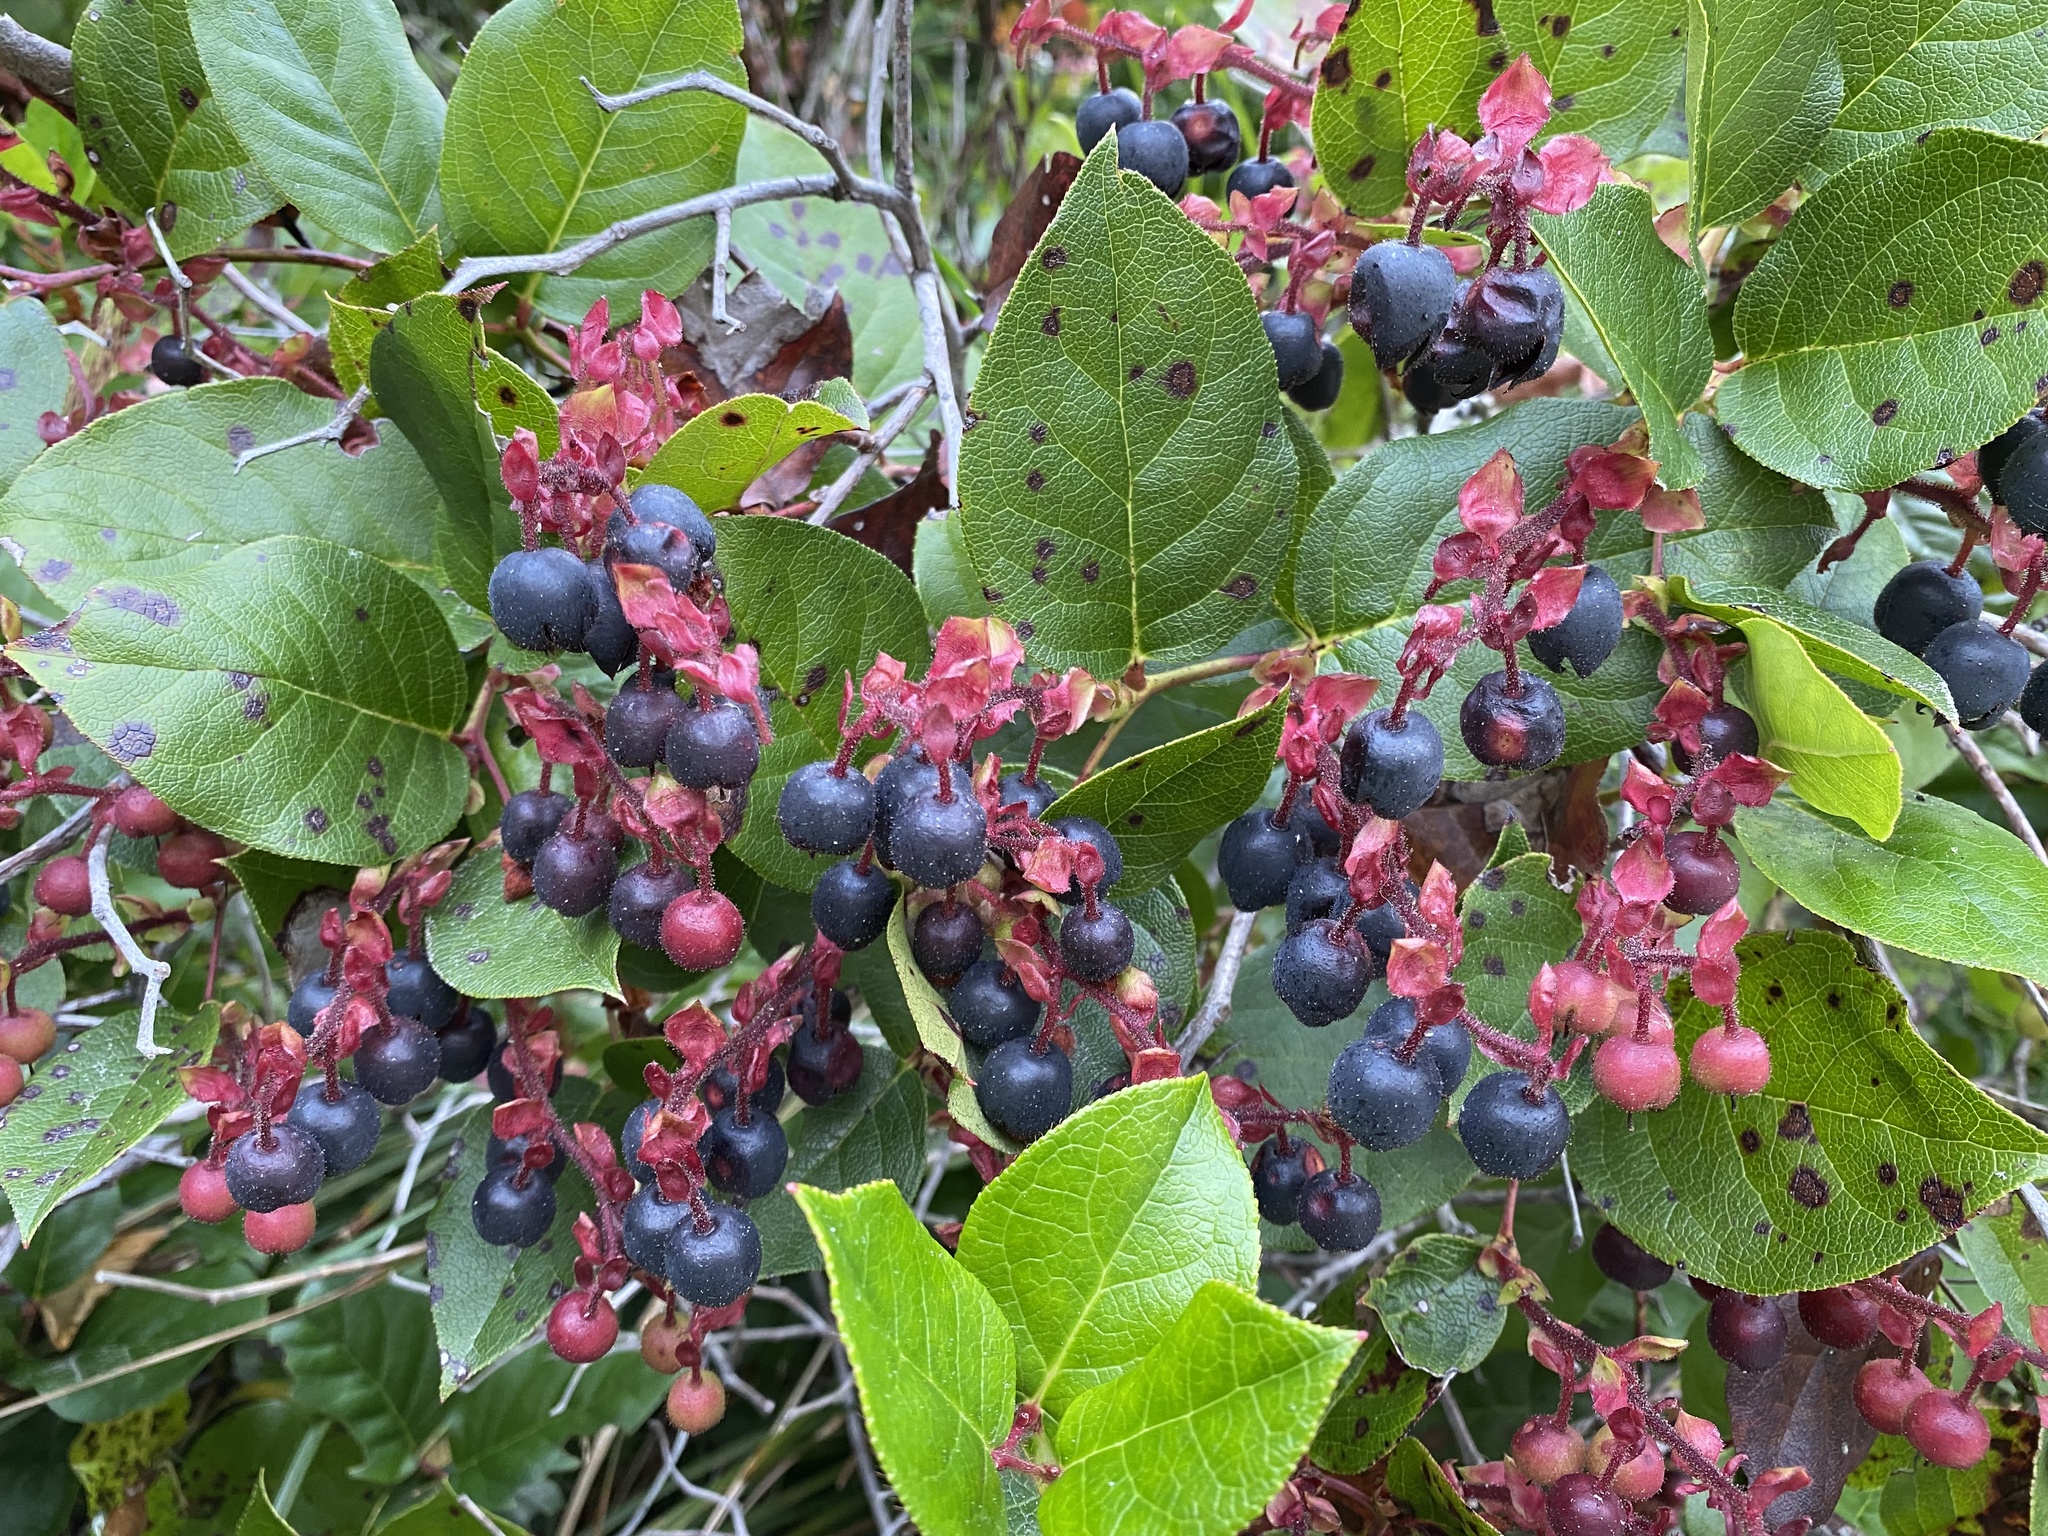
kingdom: Plantae
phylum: Tracheophyta
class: Magnoliopsida
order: Ericales
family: Ericaceae
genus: Gaultheria
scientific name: Gaultheria shallon
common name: Shallon
